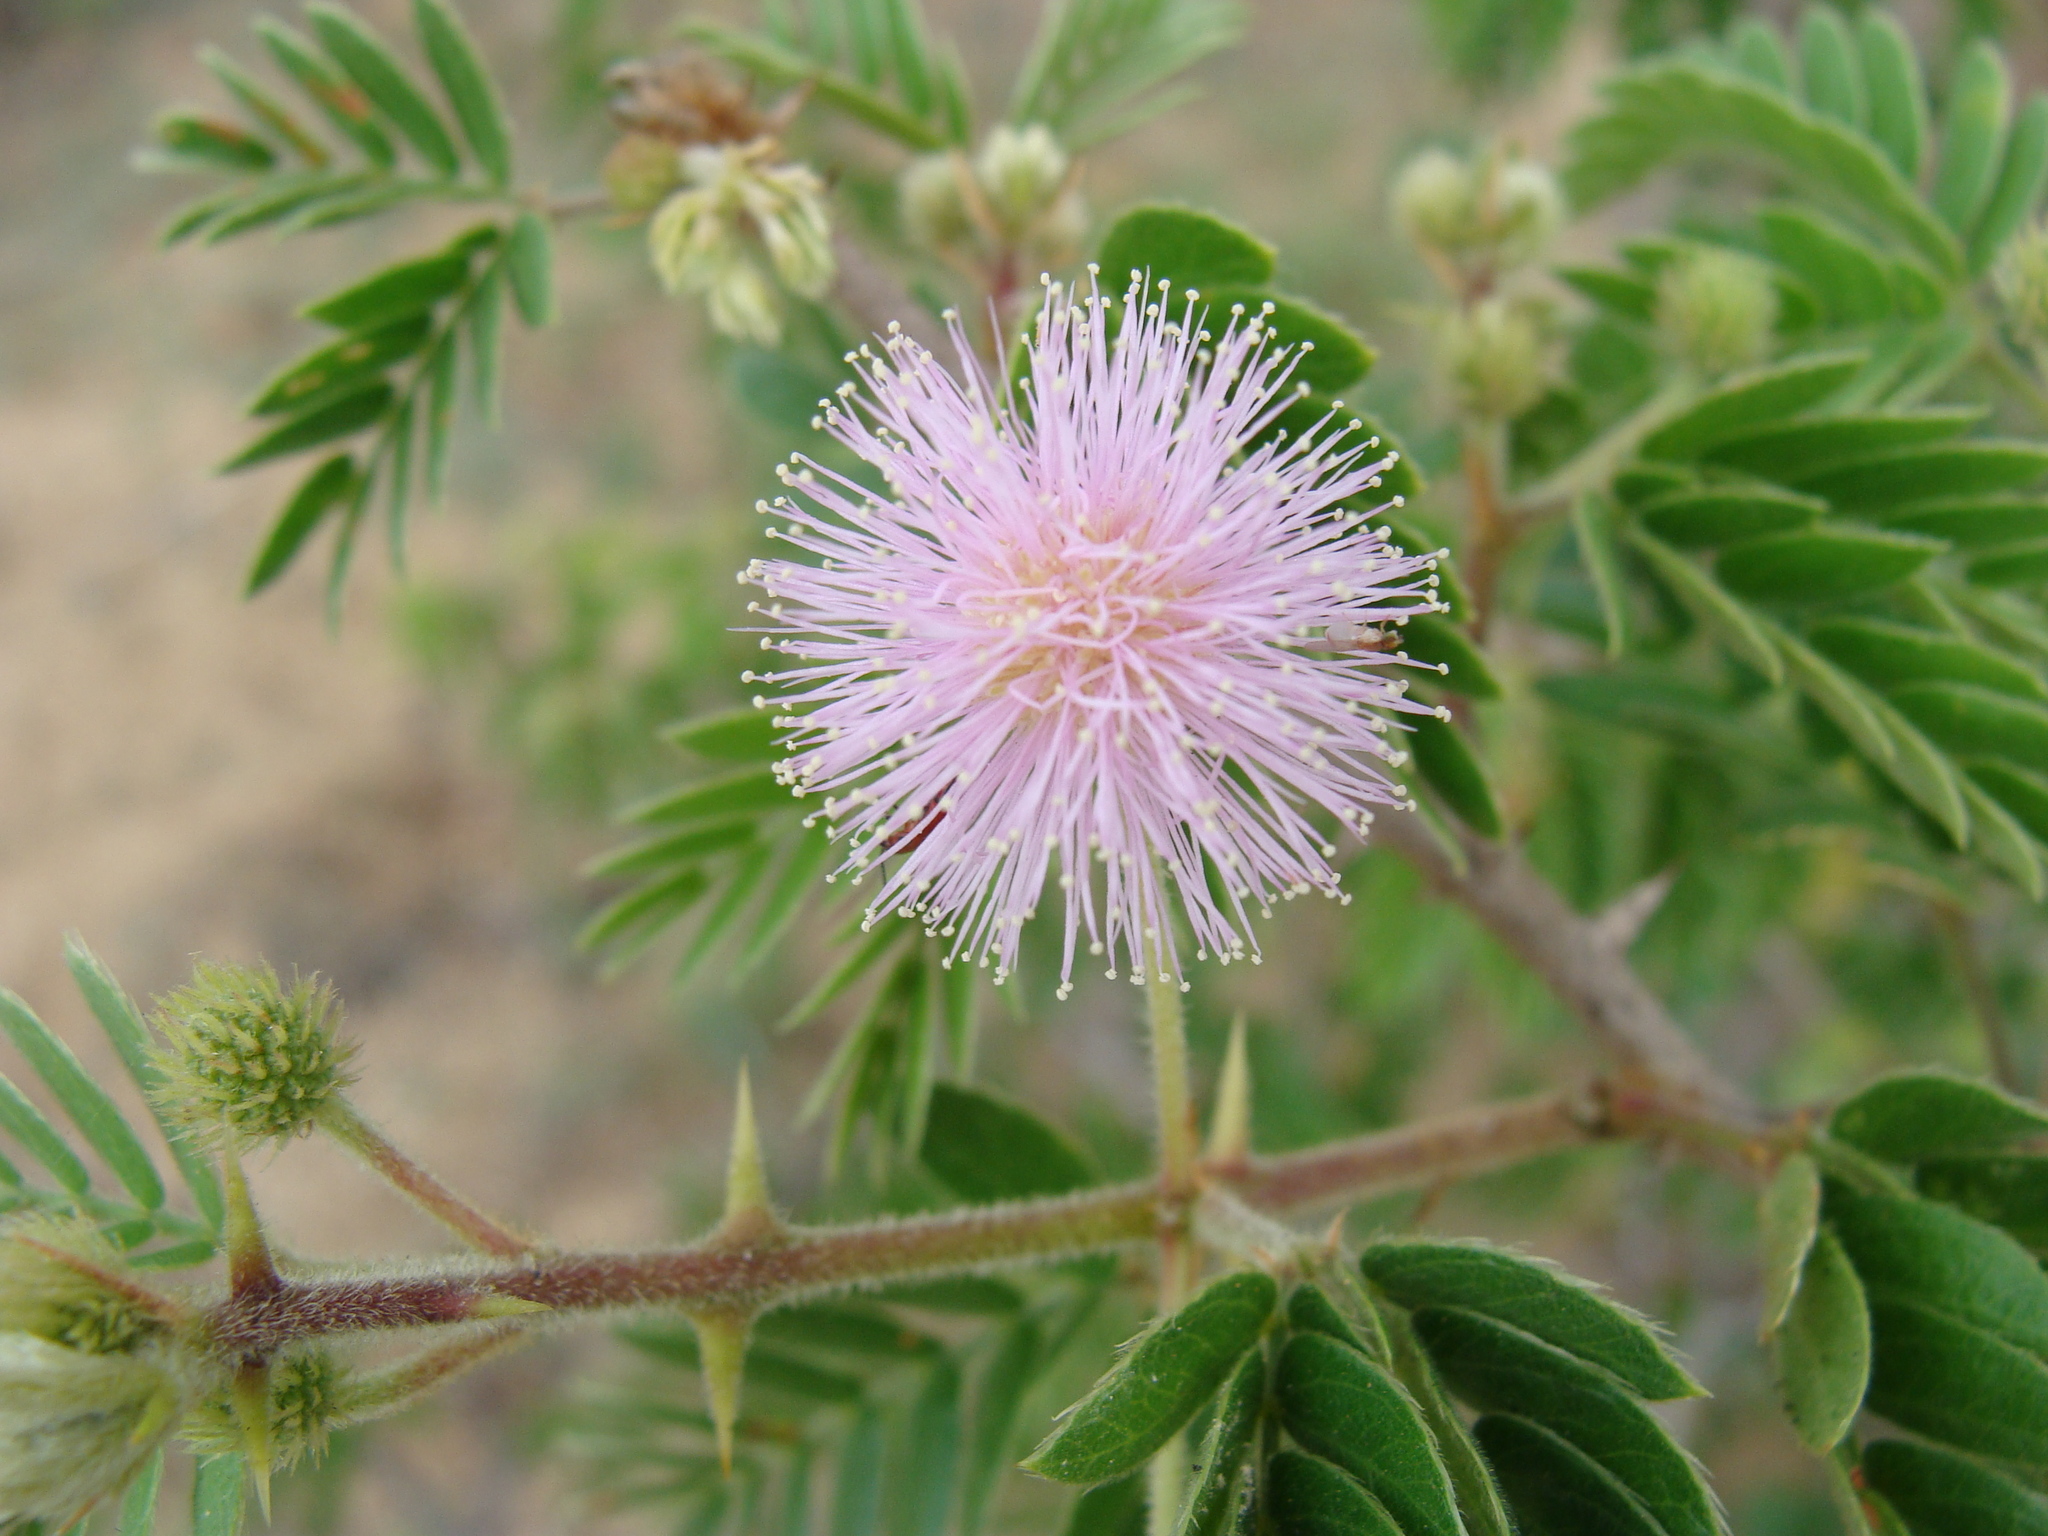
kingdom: Plantae
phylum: Tracheophyta
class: Magnoliopsida
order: Fabales
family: Fabaceae
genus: Mimosa
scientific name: Mimosa tricephala
